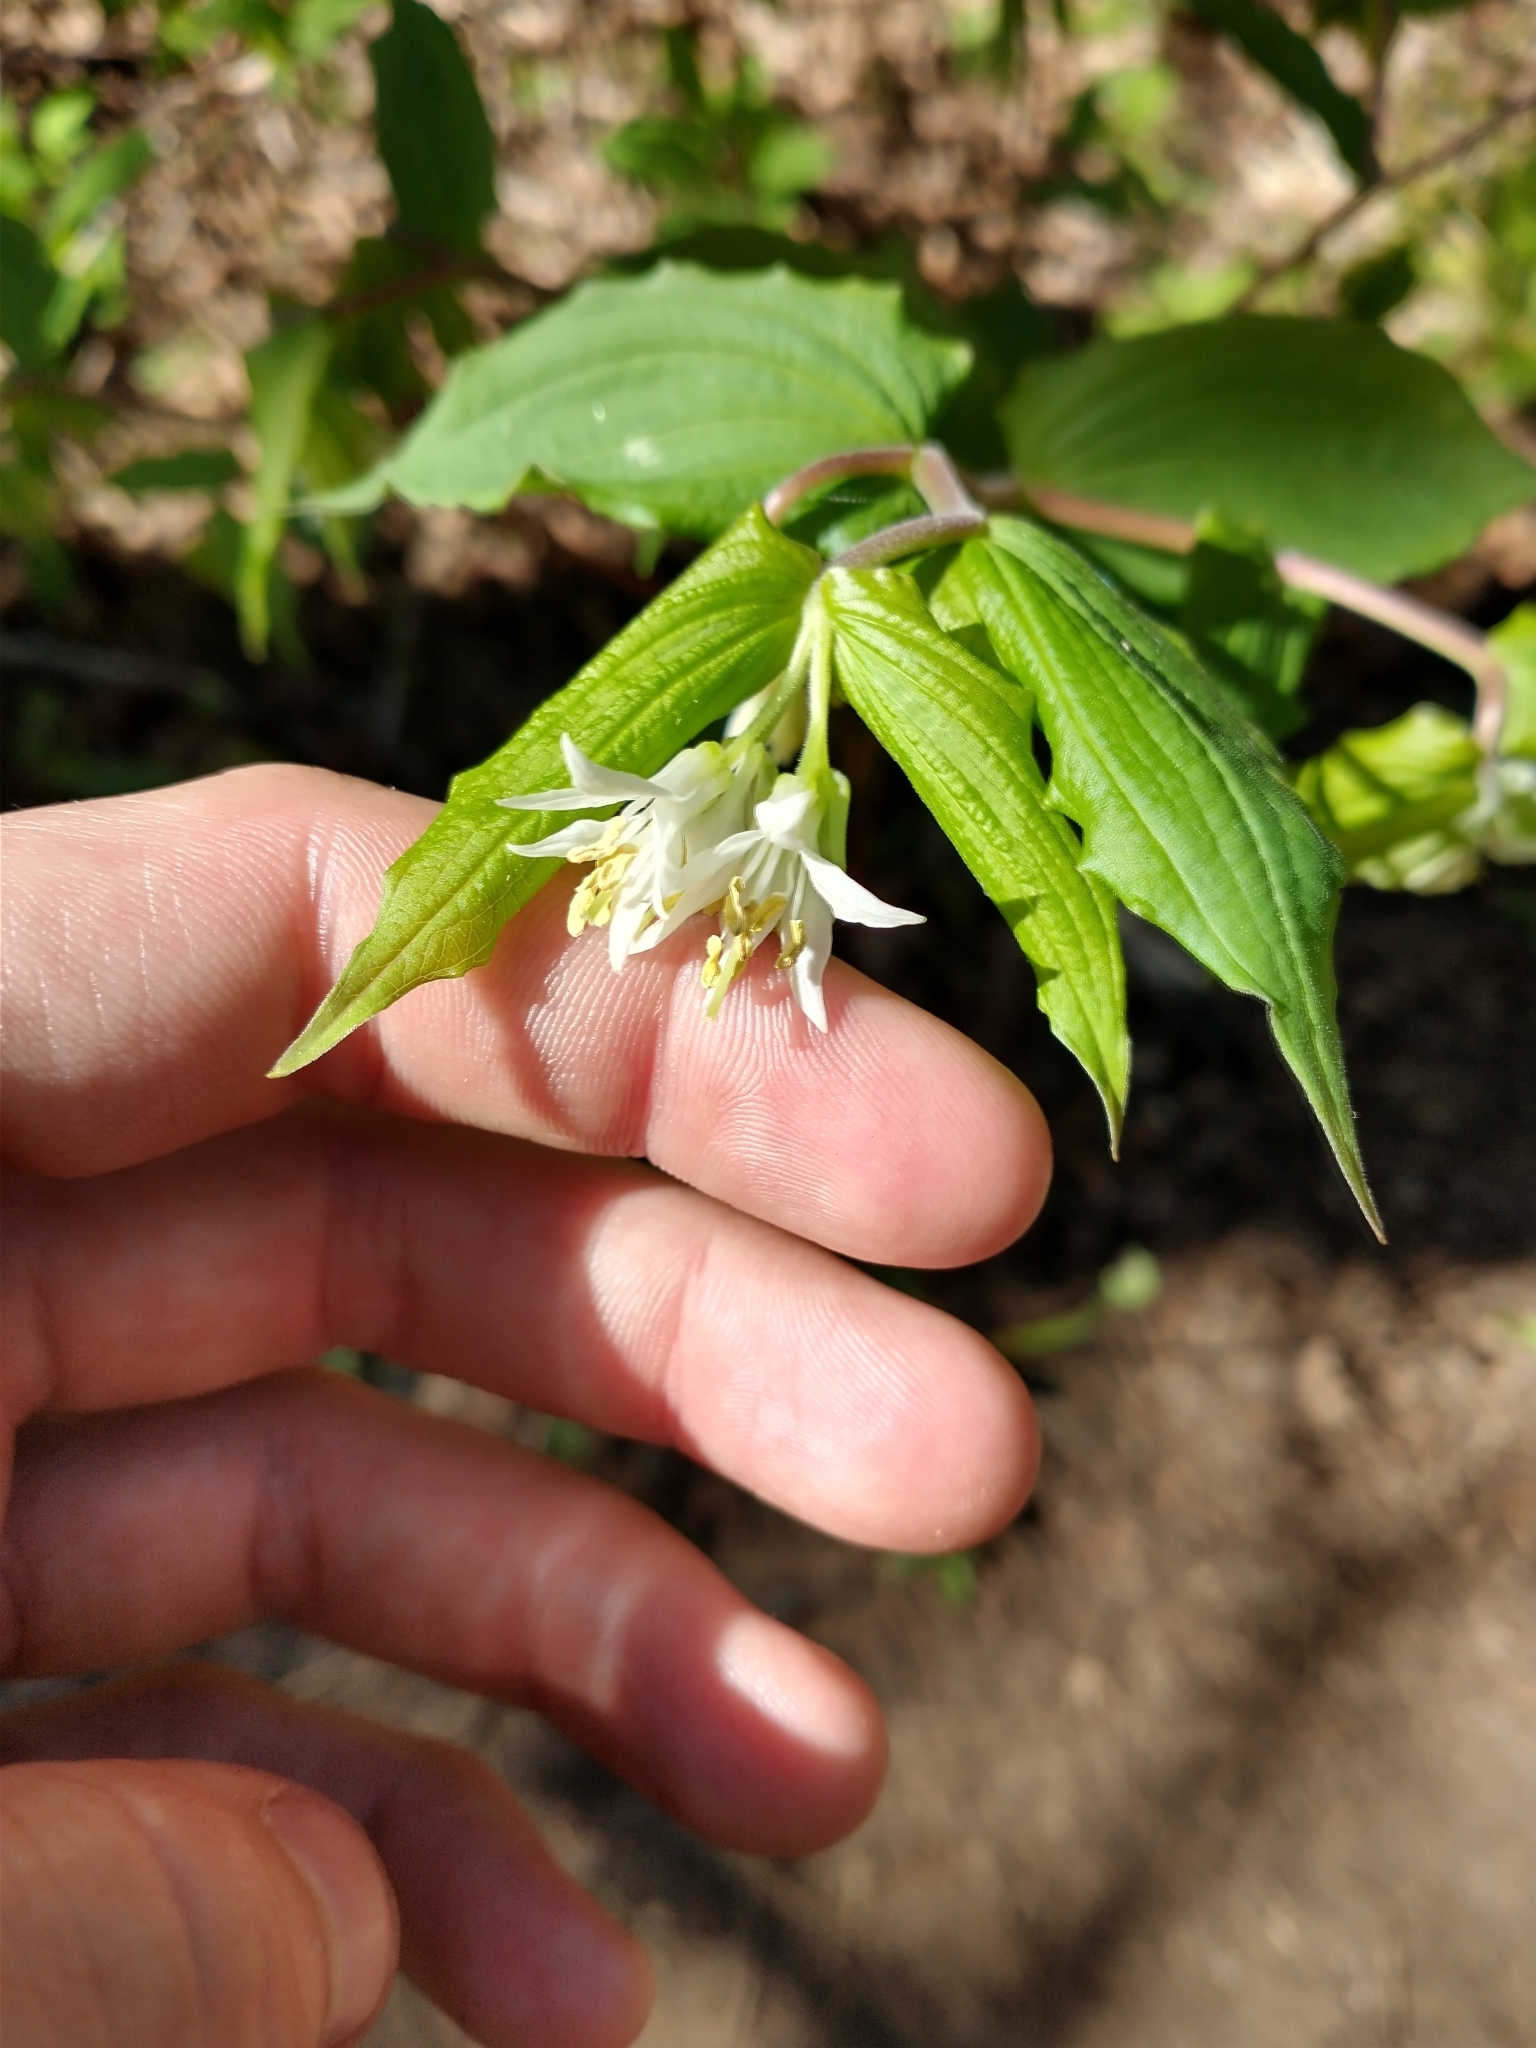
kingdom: Plantae
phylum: Tracheophyta
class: Liliopsida
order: Liliales
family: Liliaceae
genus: Prosartes
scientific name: Prosartes hookeri
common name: Fairy-bells
